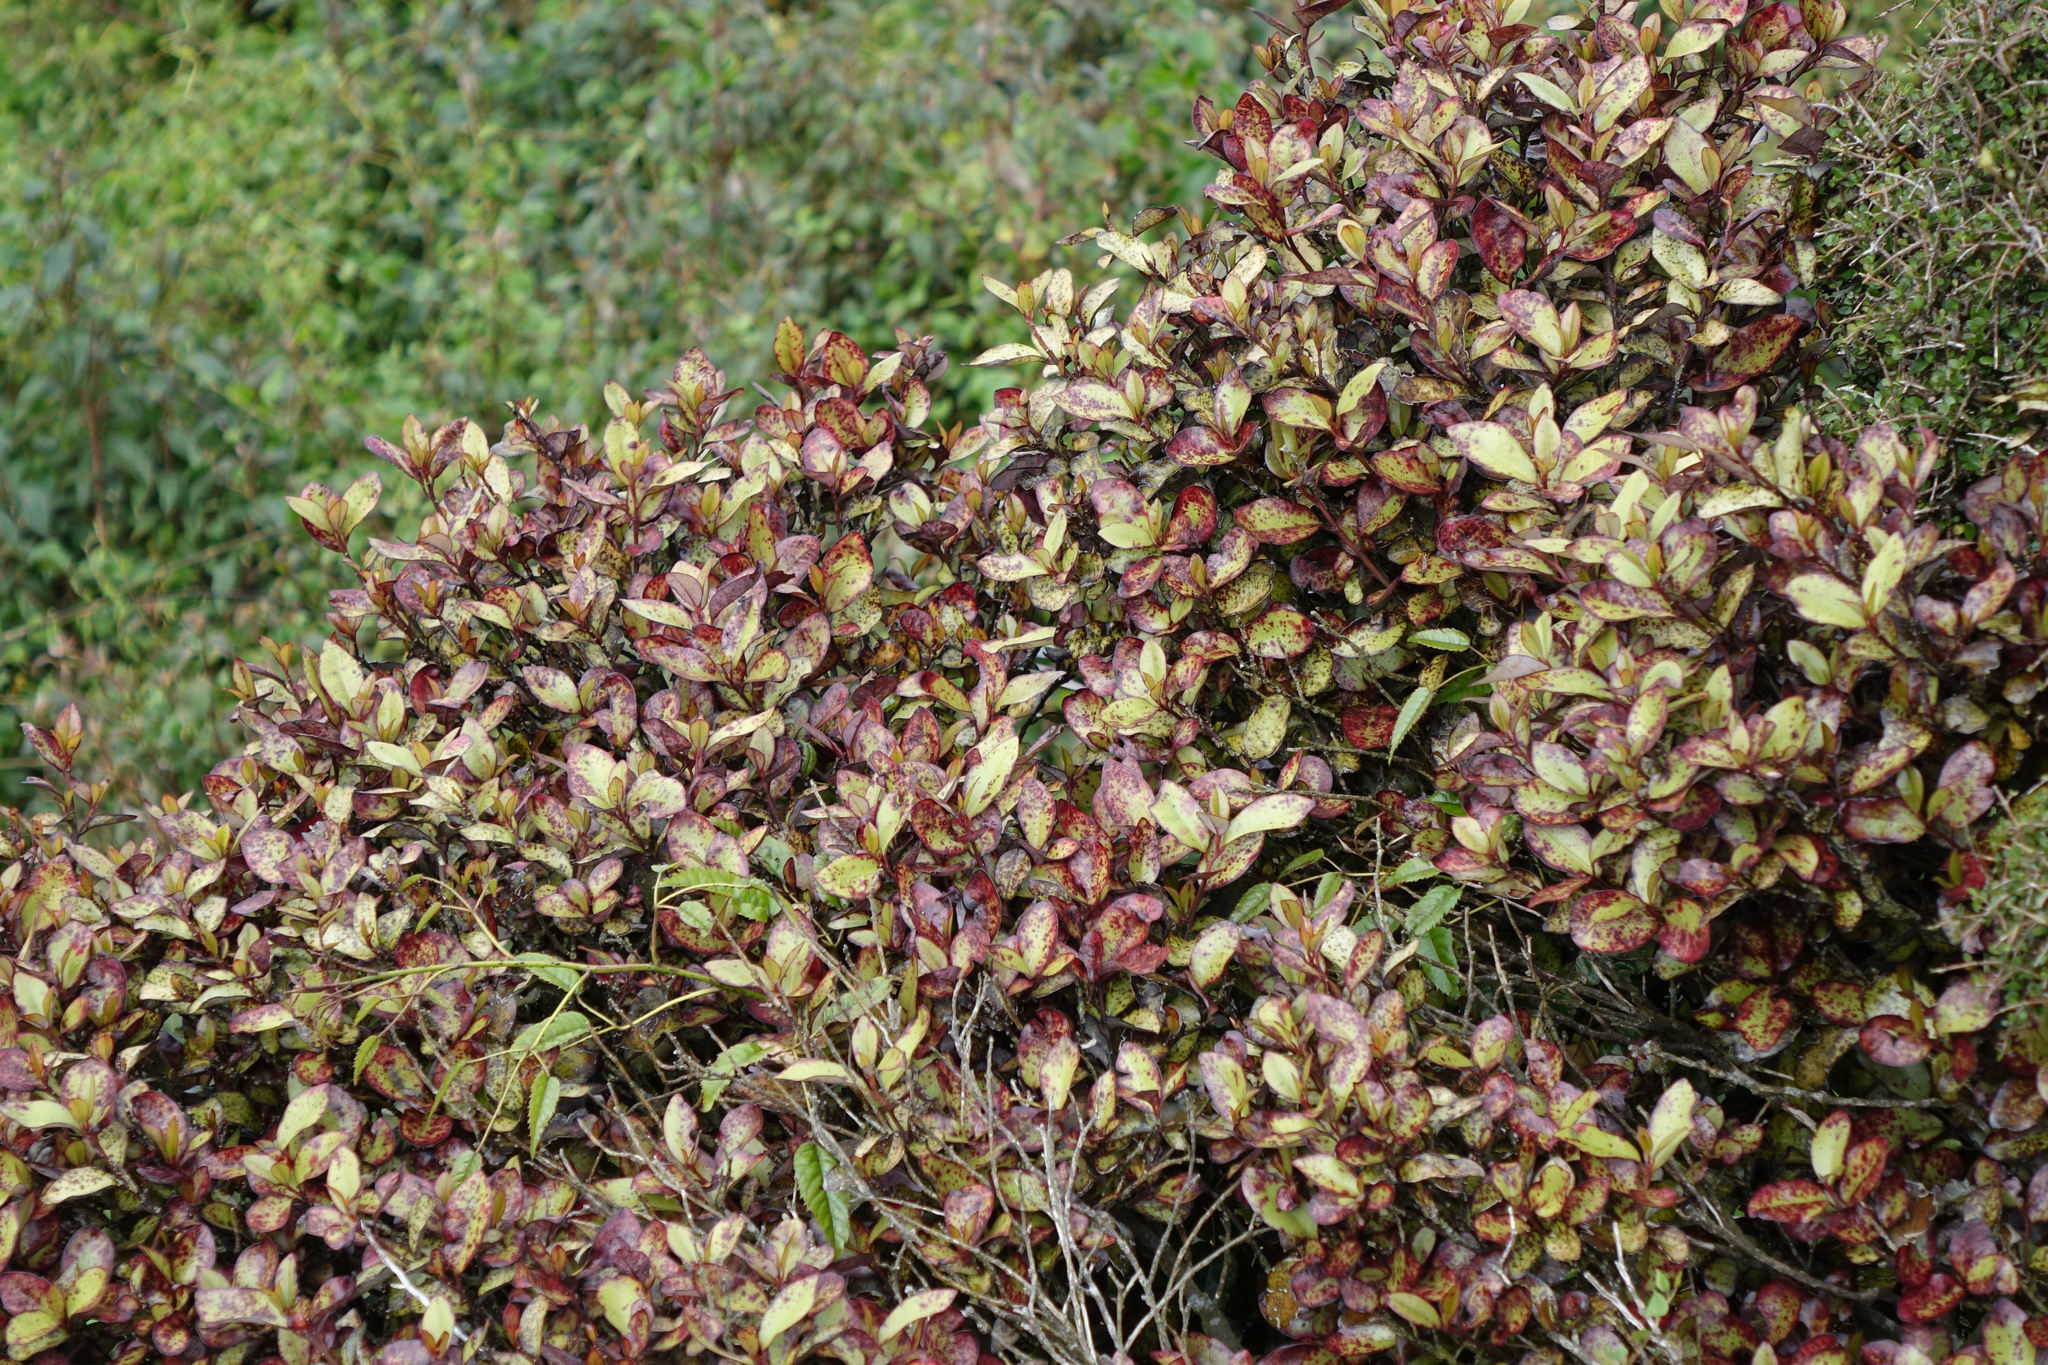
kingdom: Plantae
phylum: Tracheophyta
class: Magnoliopsida
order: Canellales
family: Winteraceae
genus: Pseudowintera
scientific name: Pseudowintera colorata
